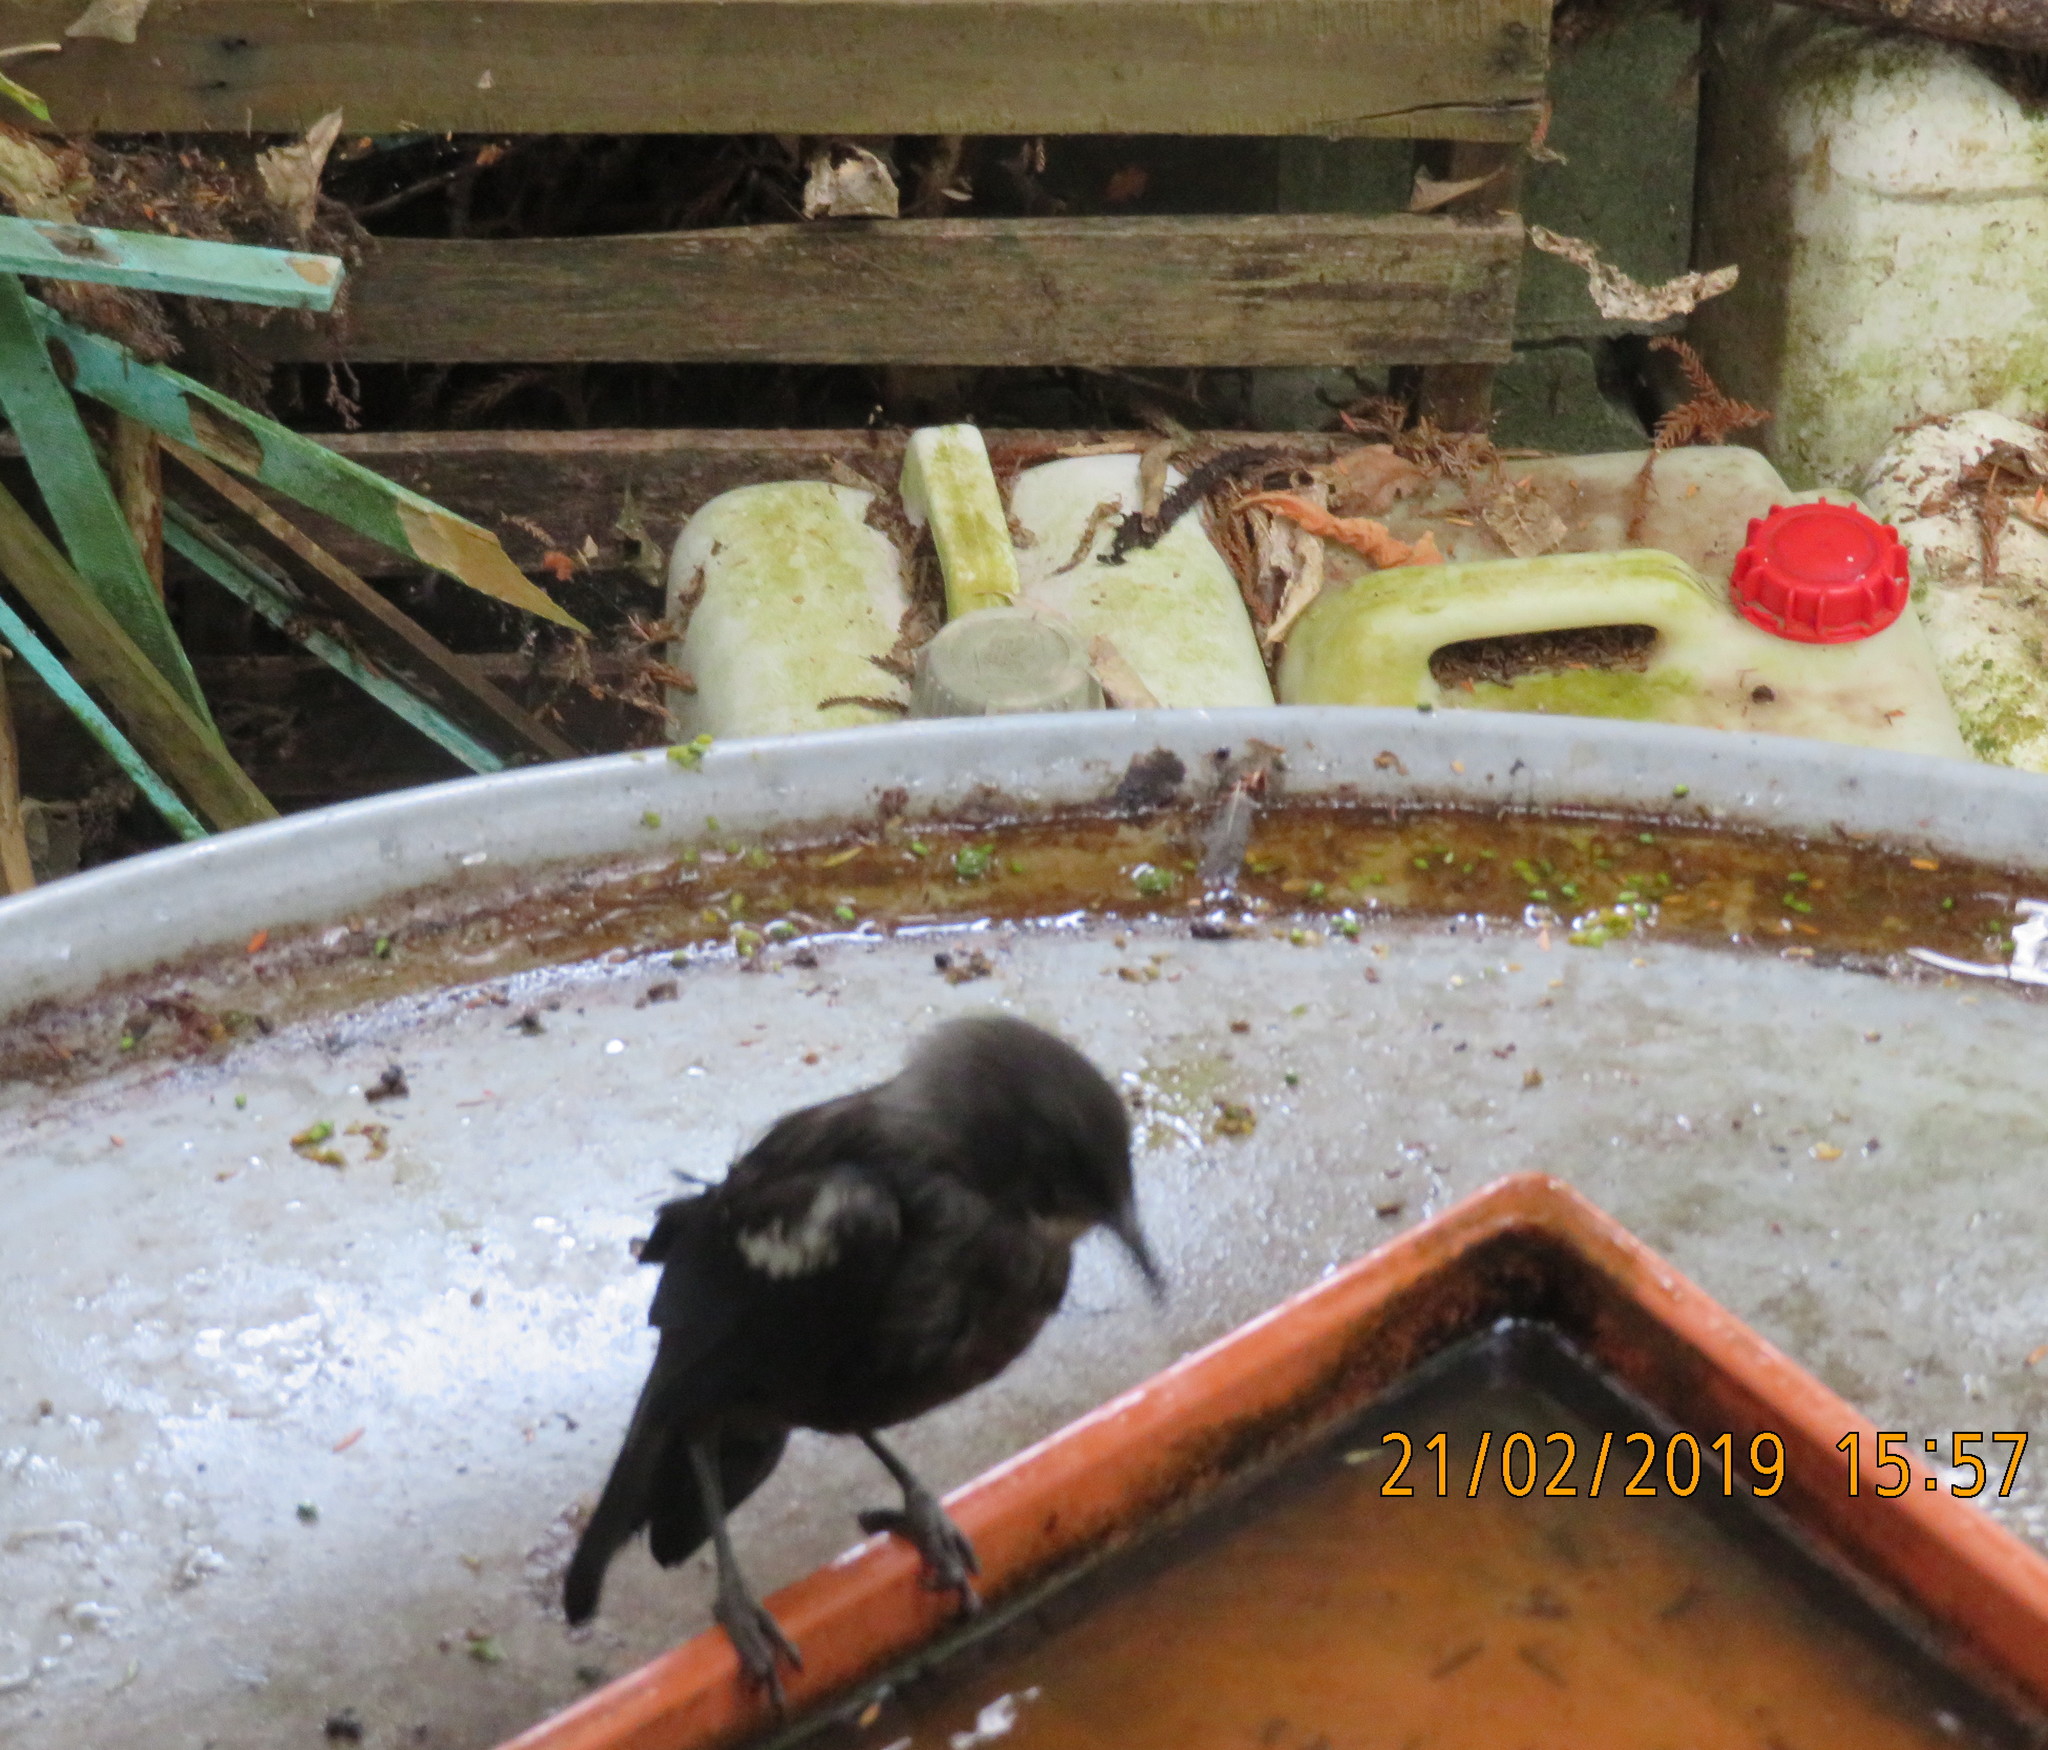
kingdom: Animalia
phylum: Chordata
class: Aves
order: Passeriformes
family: Meliphagidae
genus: Prosthemadera
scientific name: Prosthemadera novaeseelandiae
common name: Tui
